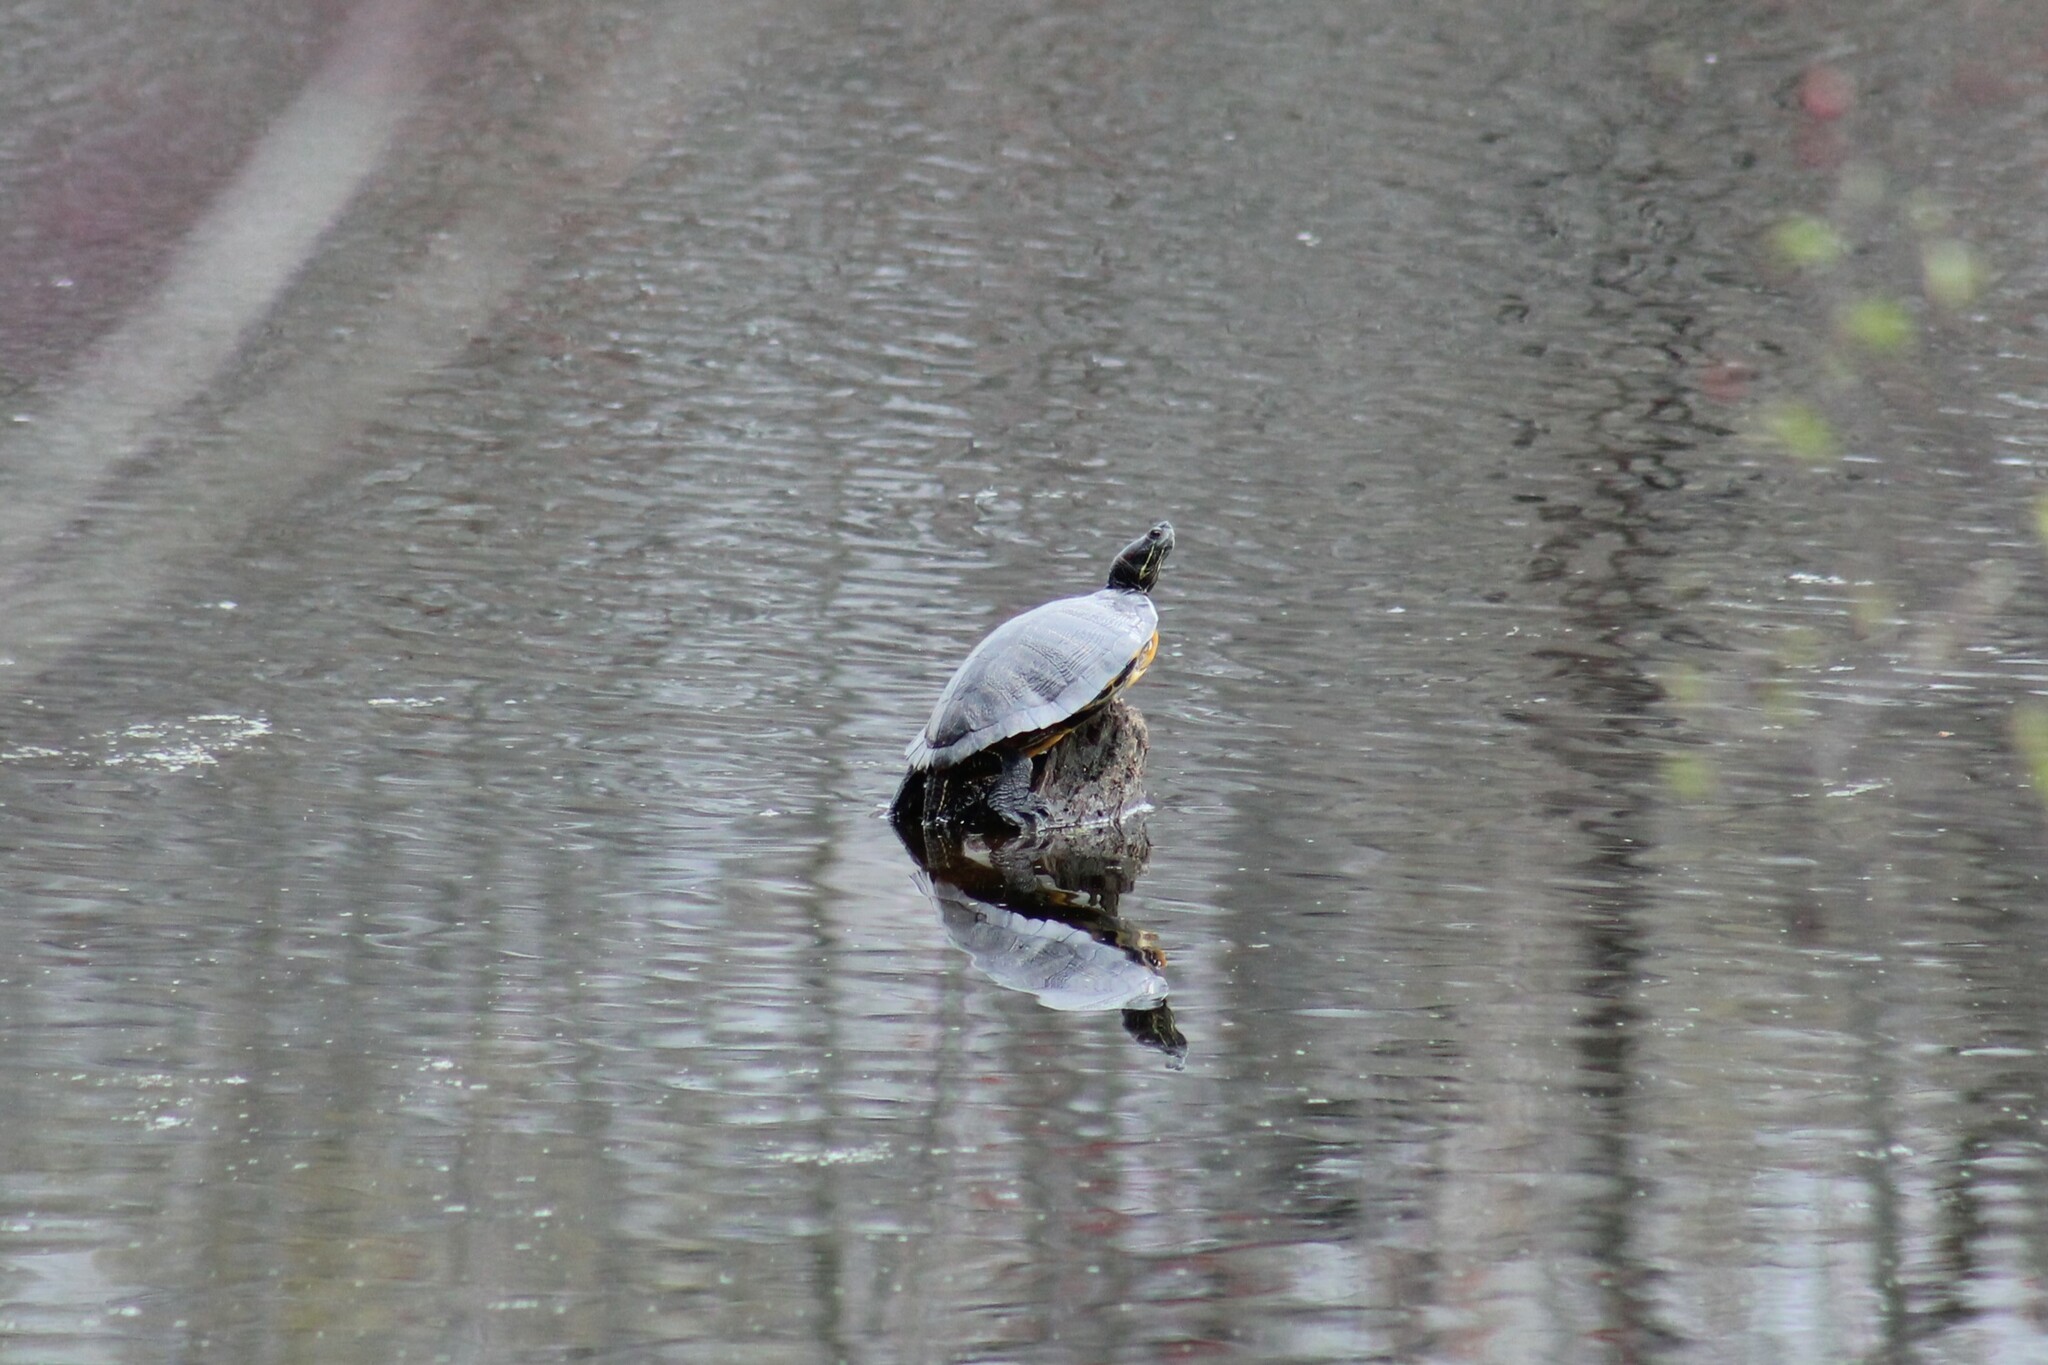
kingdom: Animalia
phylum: Chordata
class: Testudines
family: Emydidae
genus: Trachemys
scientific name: Trachemys scripta
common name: Slider
